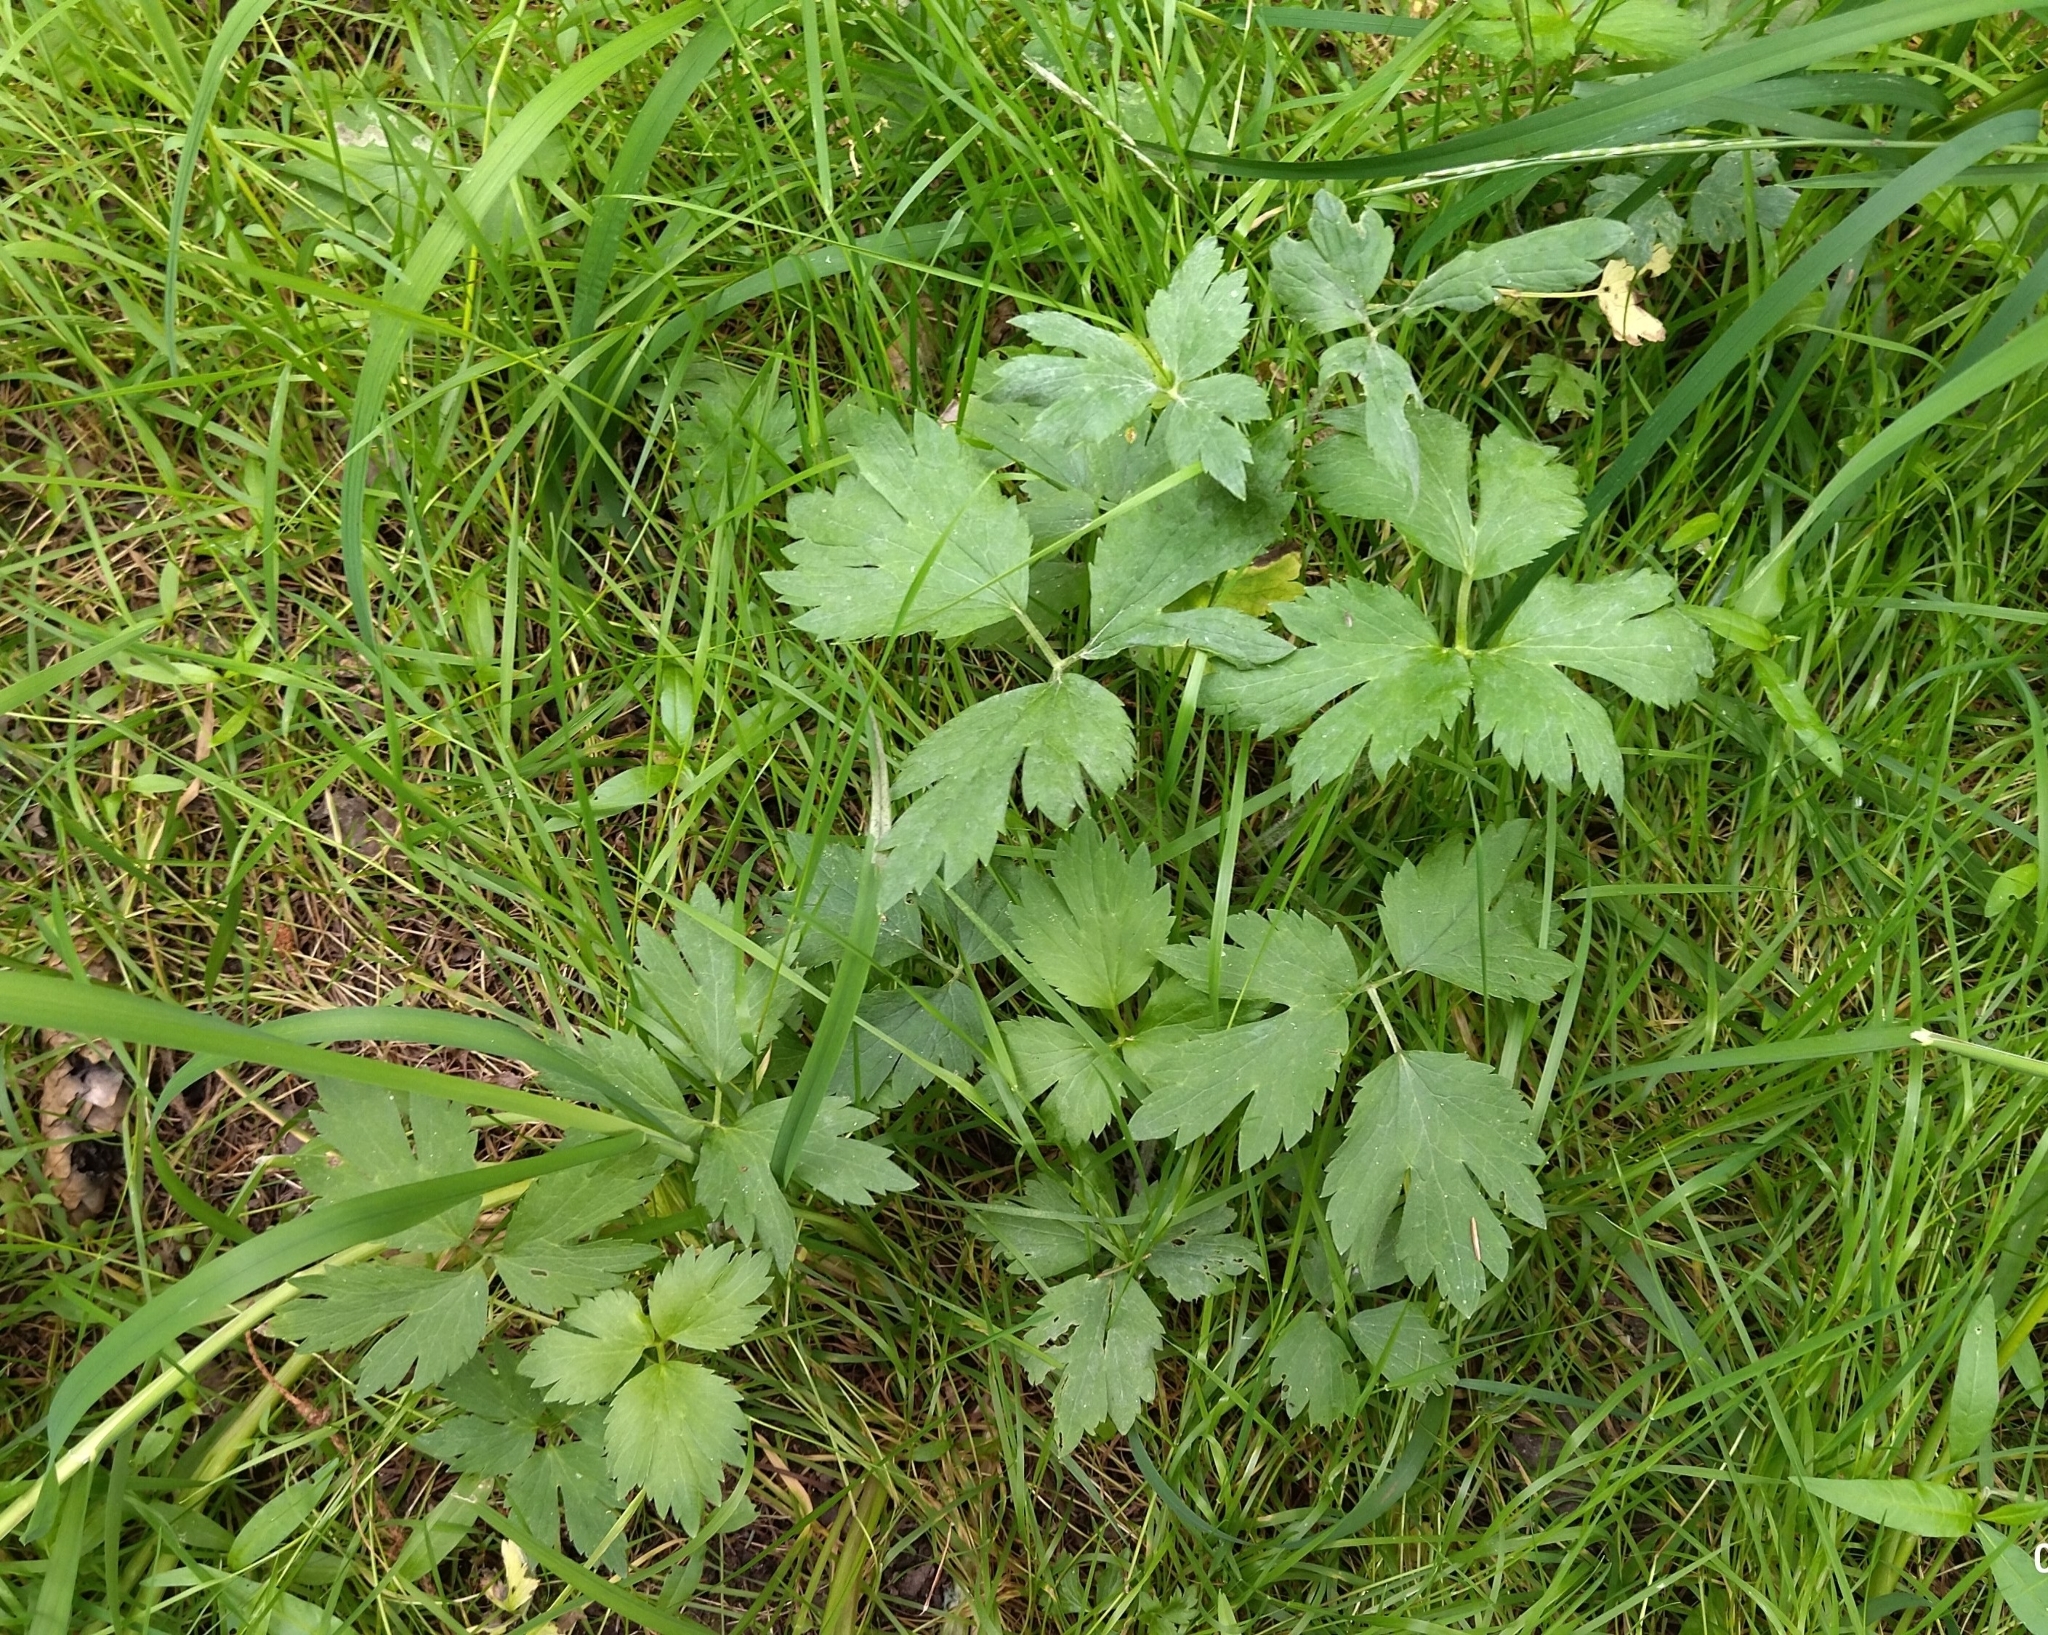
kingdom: Plantae
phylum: Tracheophyta
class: Magnoliopsida
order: Ranunculales
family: Ranunculaceae
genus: Ranunculus
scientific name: Ranunculus repens
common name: Creeping buttercup
